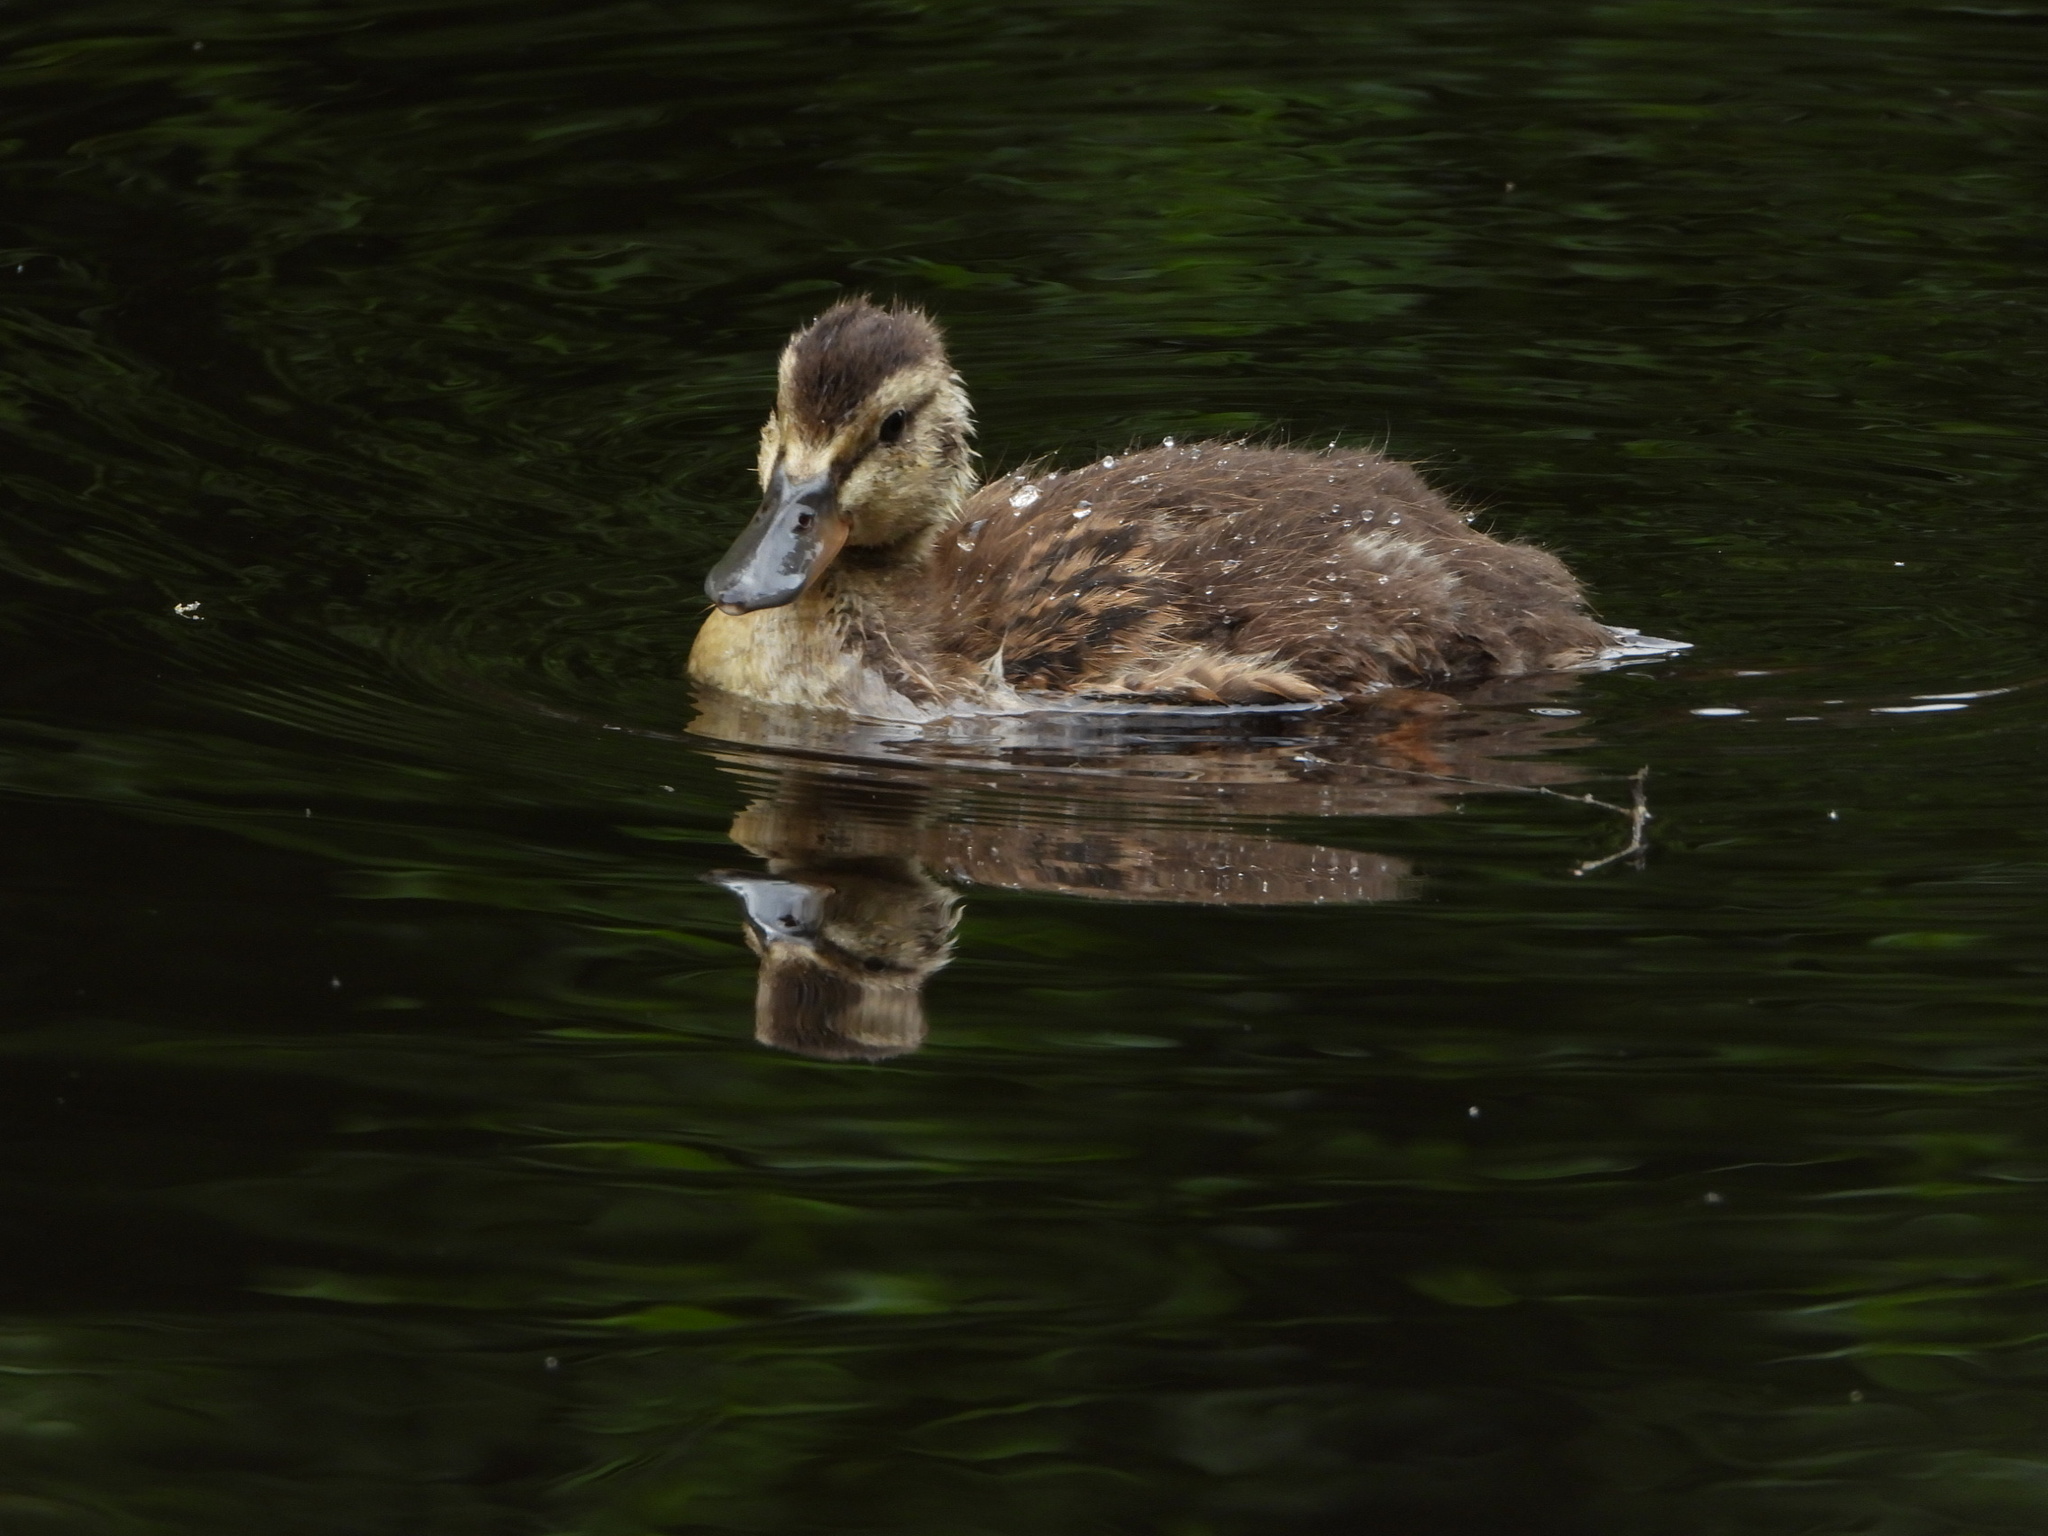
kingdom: Animalia
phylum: Chordata
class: Aves
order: Anseriformes
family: Anatidae
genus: Anas
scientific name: Anas platyrhynchos
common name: Mallard
